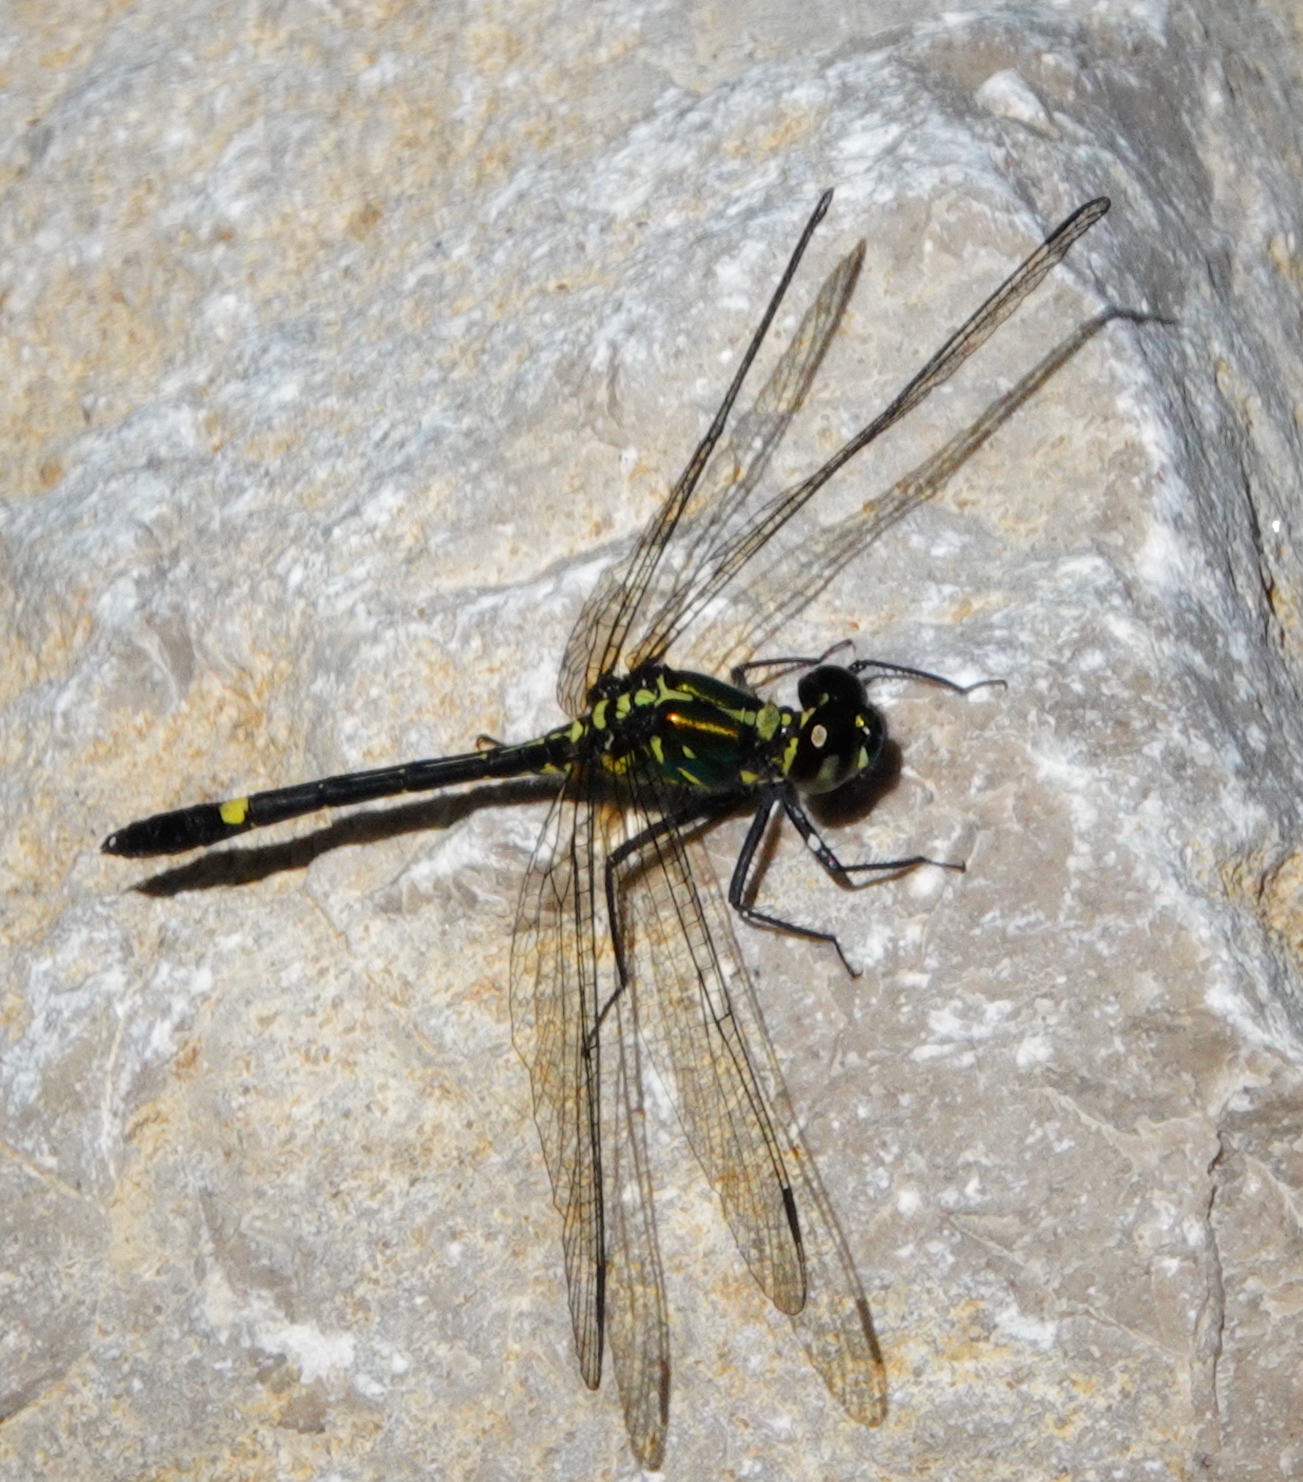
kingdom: Animalia
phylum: Arthropoda
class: Insecta
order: Odonata
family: Libellulidae
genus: Diplacina
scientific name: Diplacina phoebe
